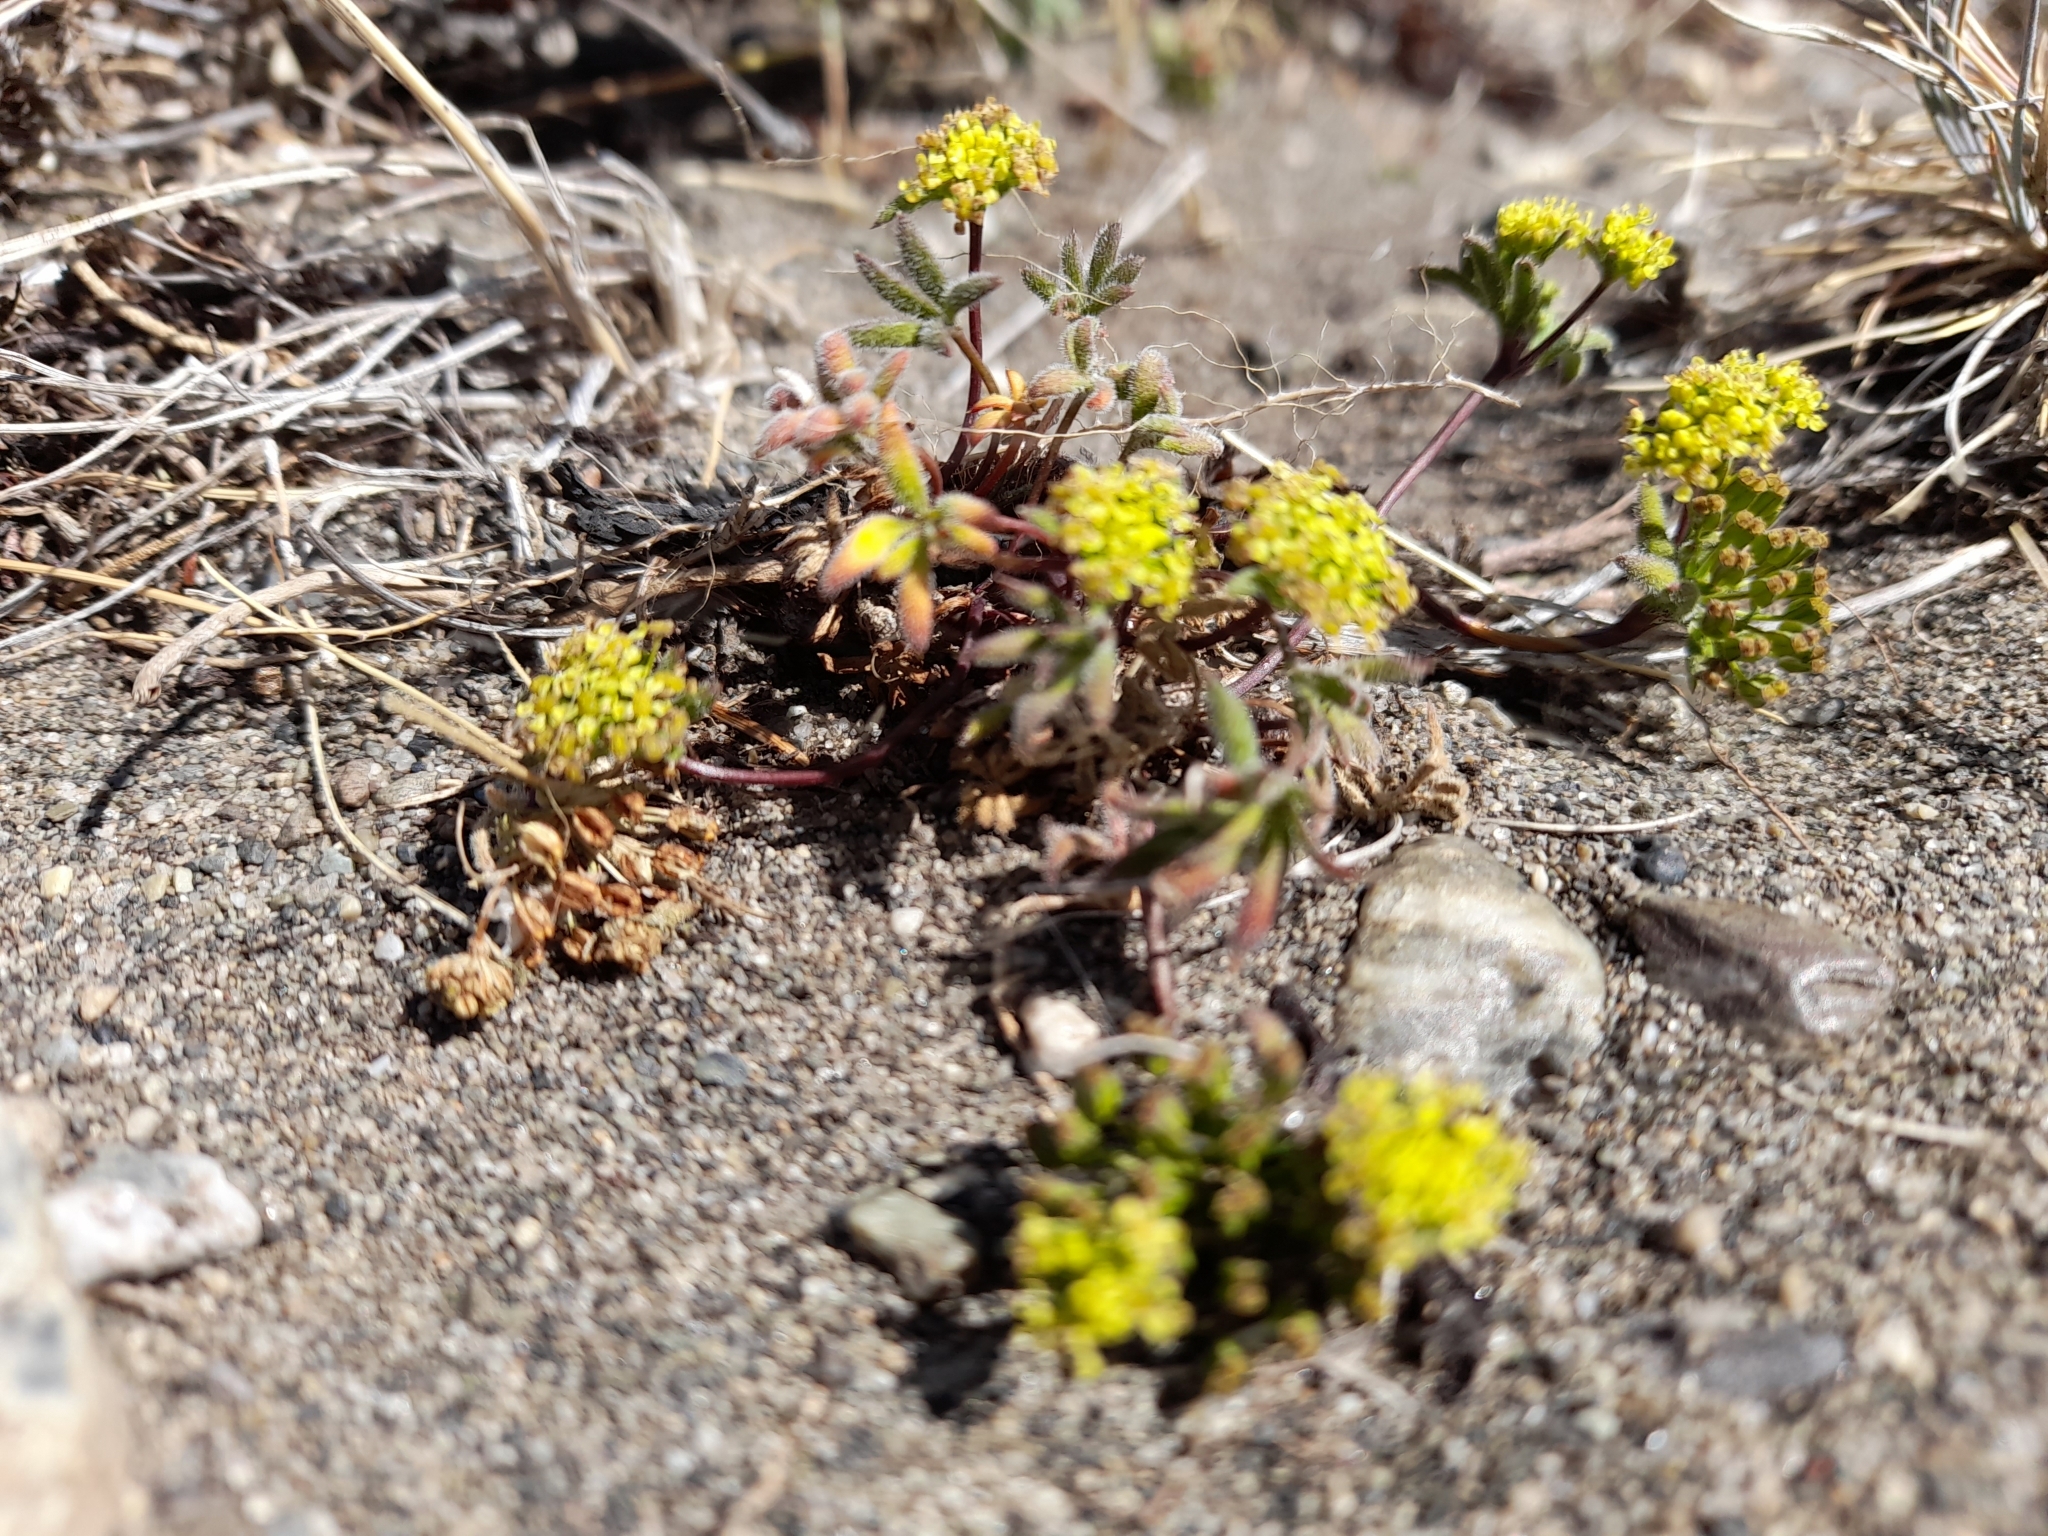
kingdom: Plantae
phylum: Tracheophyta
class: Magnoliopsida
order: Apiales
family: Apiaceae
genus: Azorella
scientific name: Azorella acaulis
